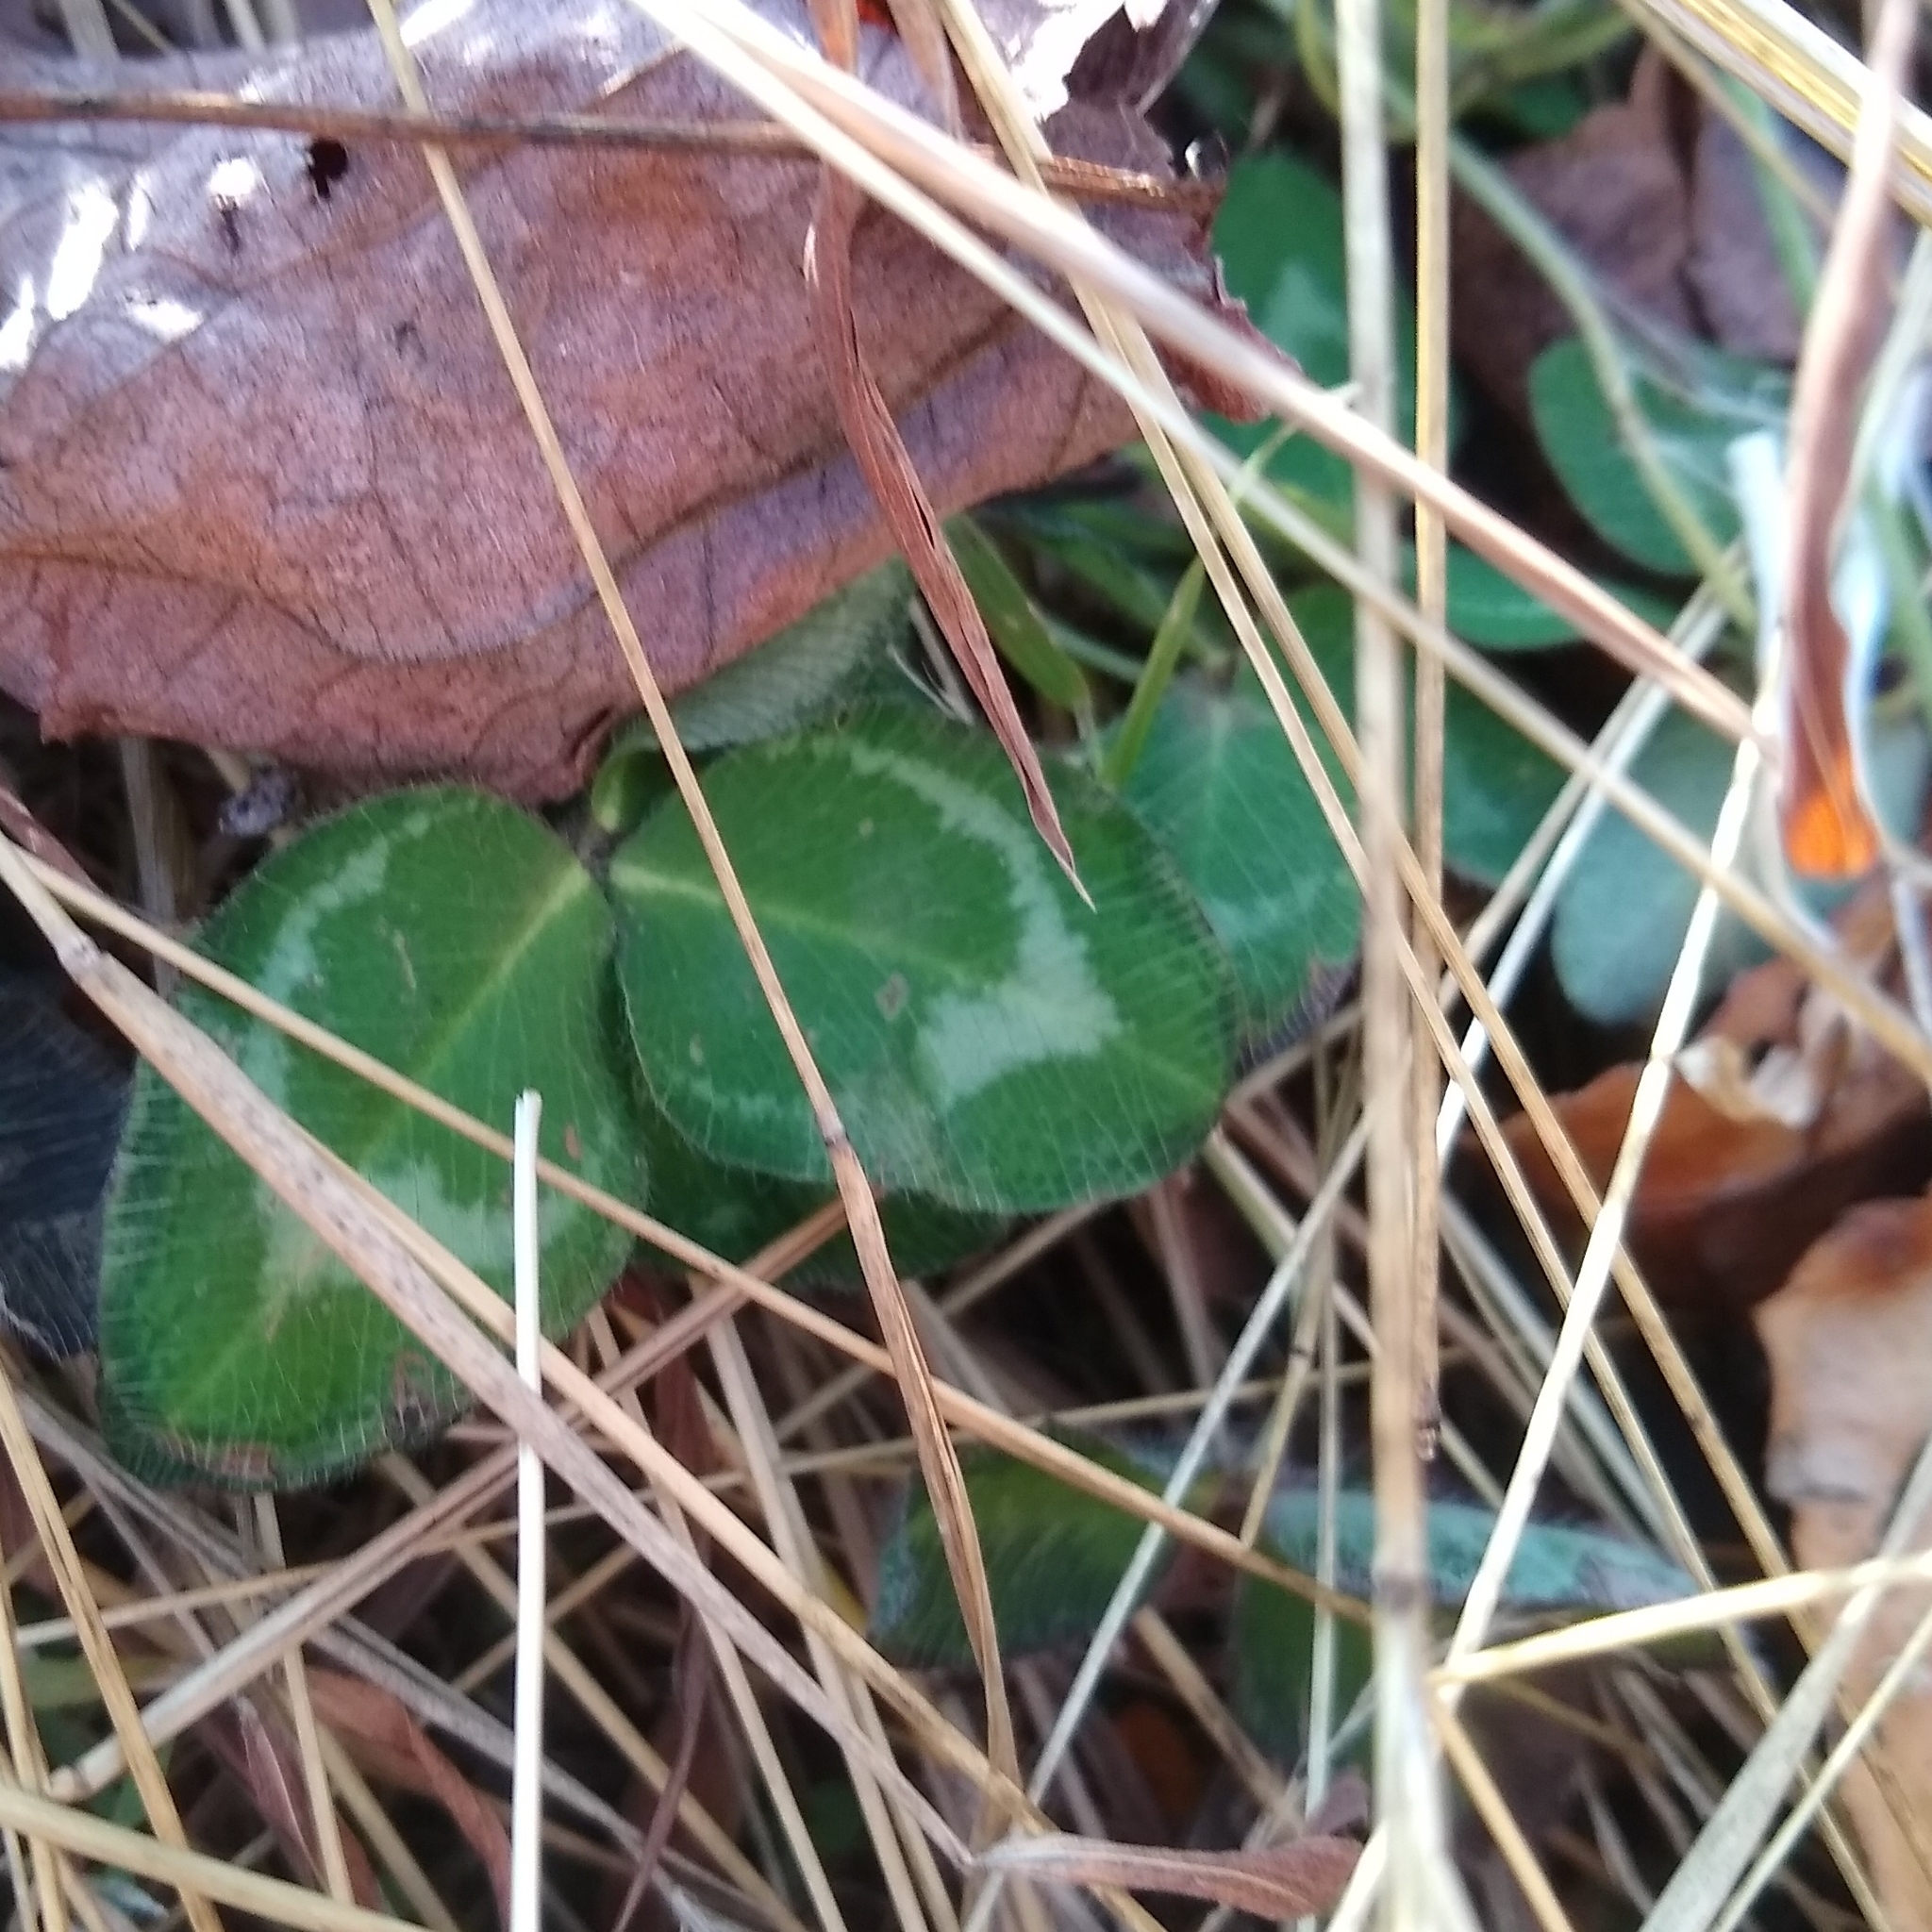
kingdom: Plantae
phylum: Tracheophyta
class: Magnoliopsida
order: Fabales
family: Fabaceae
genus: Trifolium
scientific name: Trifolium pratense
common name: Red clover
